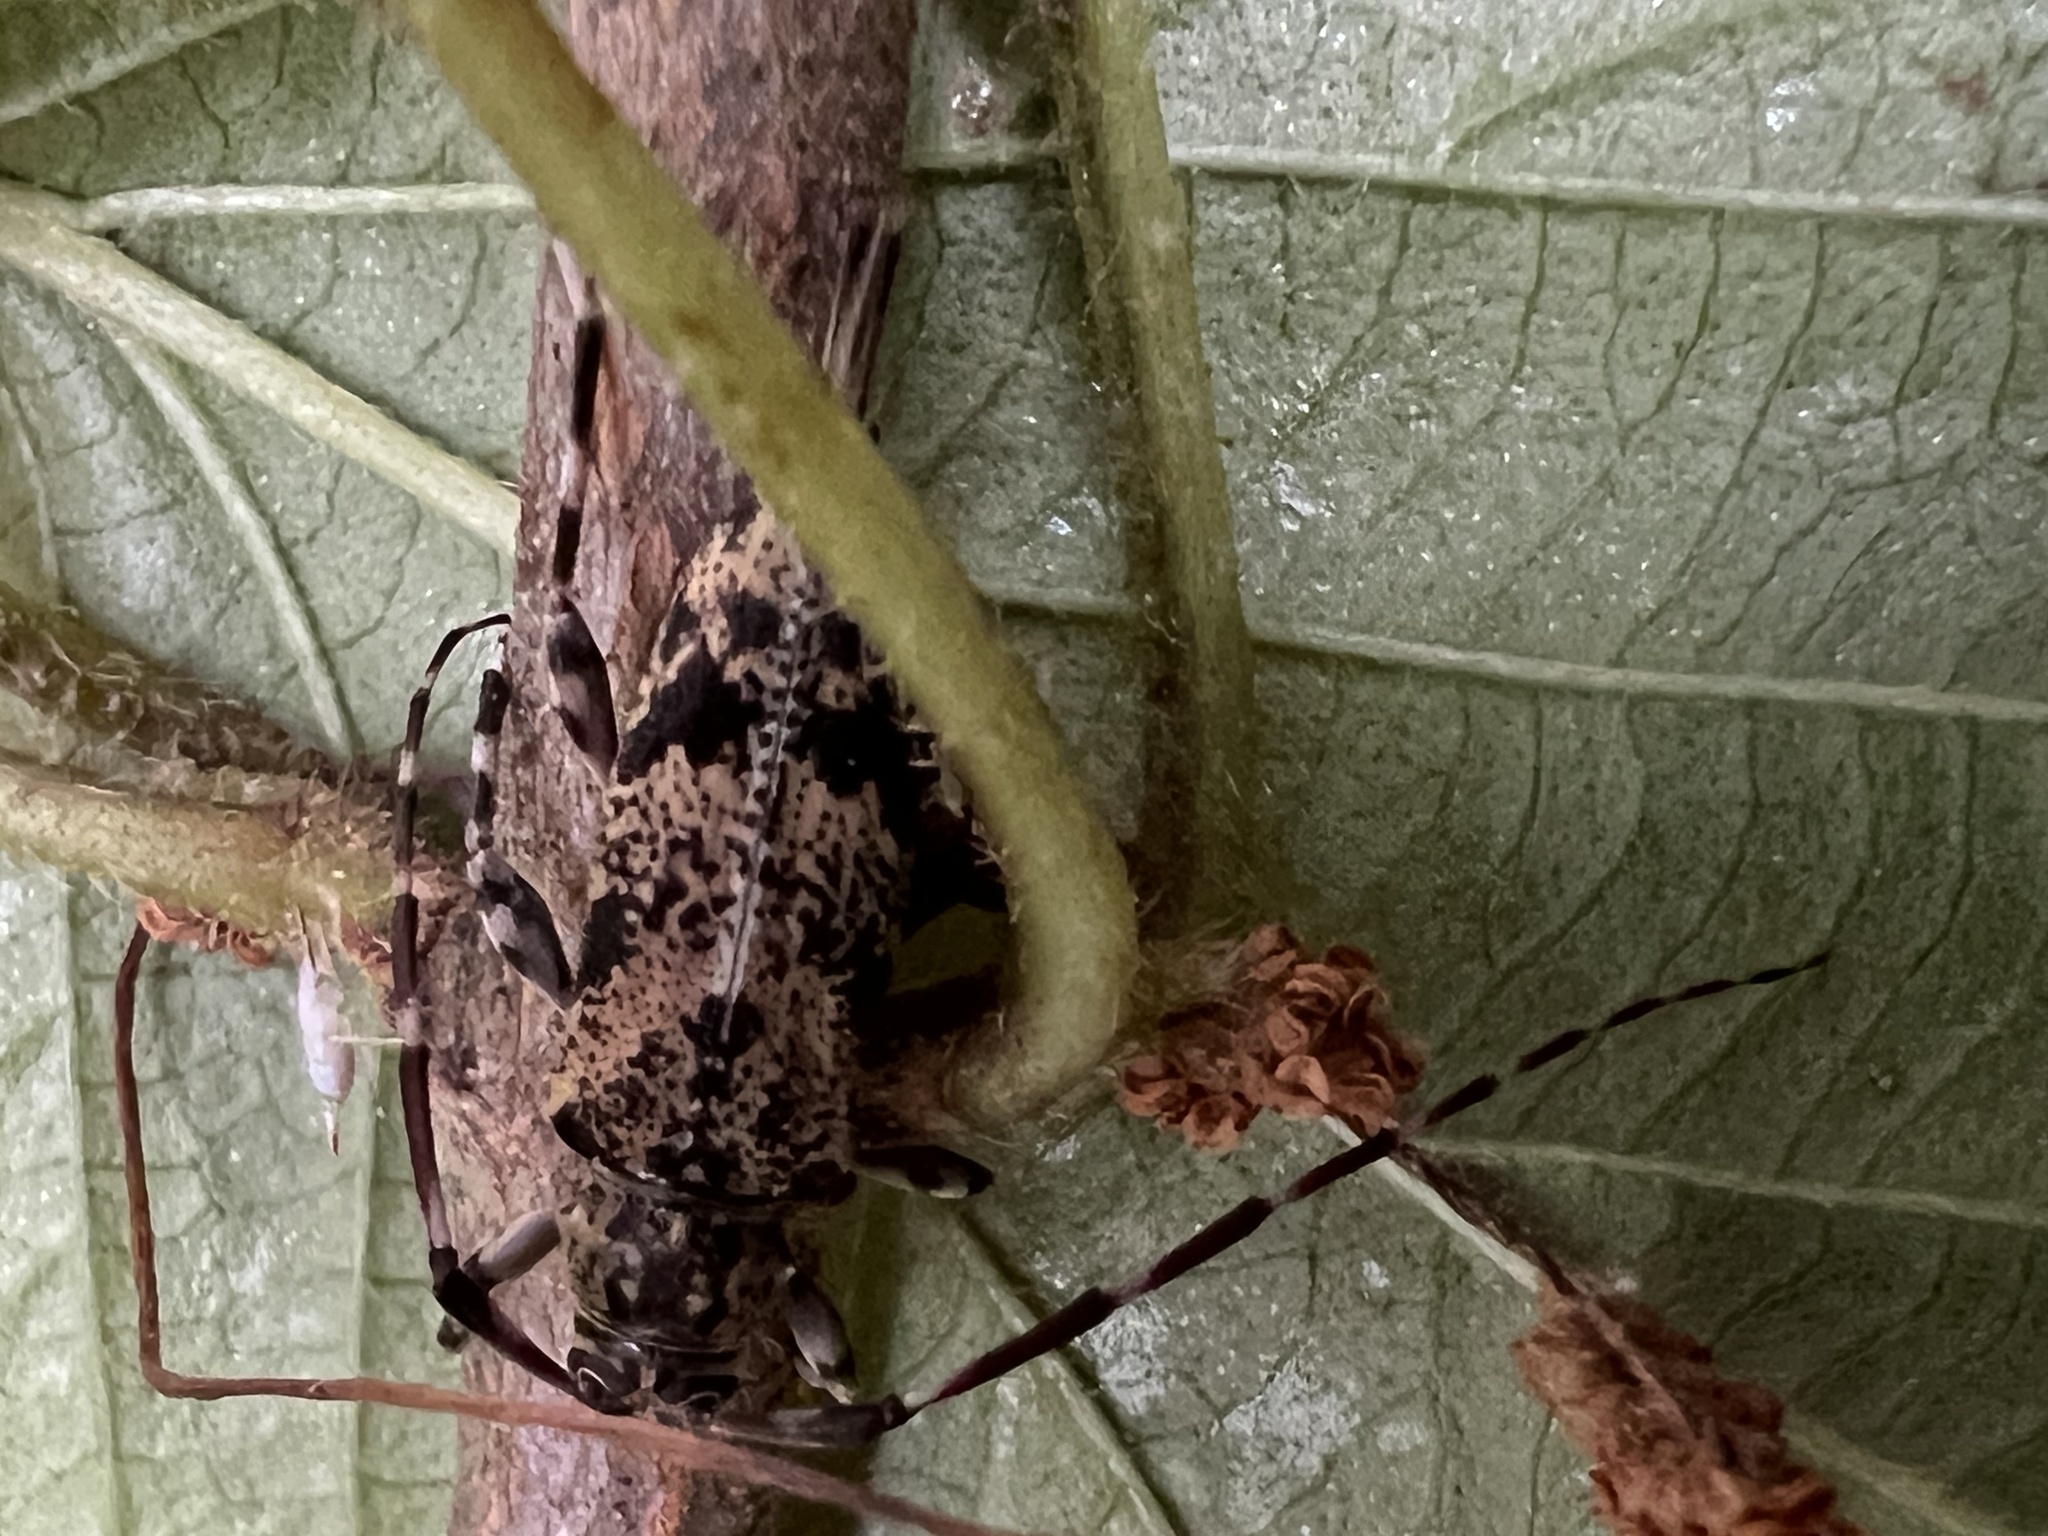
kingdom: Animalia
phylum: Arthropoda
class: Insecta
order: Coleoptera
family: Cerambycidae
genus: Graphisurus
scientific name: Graphisurus fasciatus
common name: Banded graphisurus
